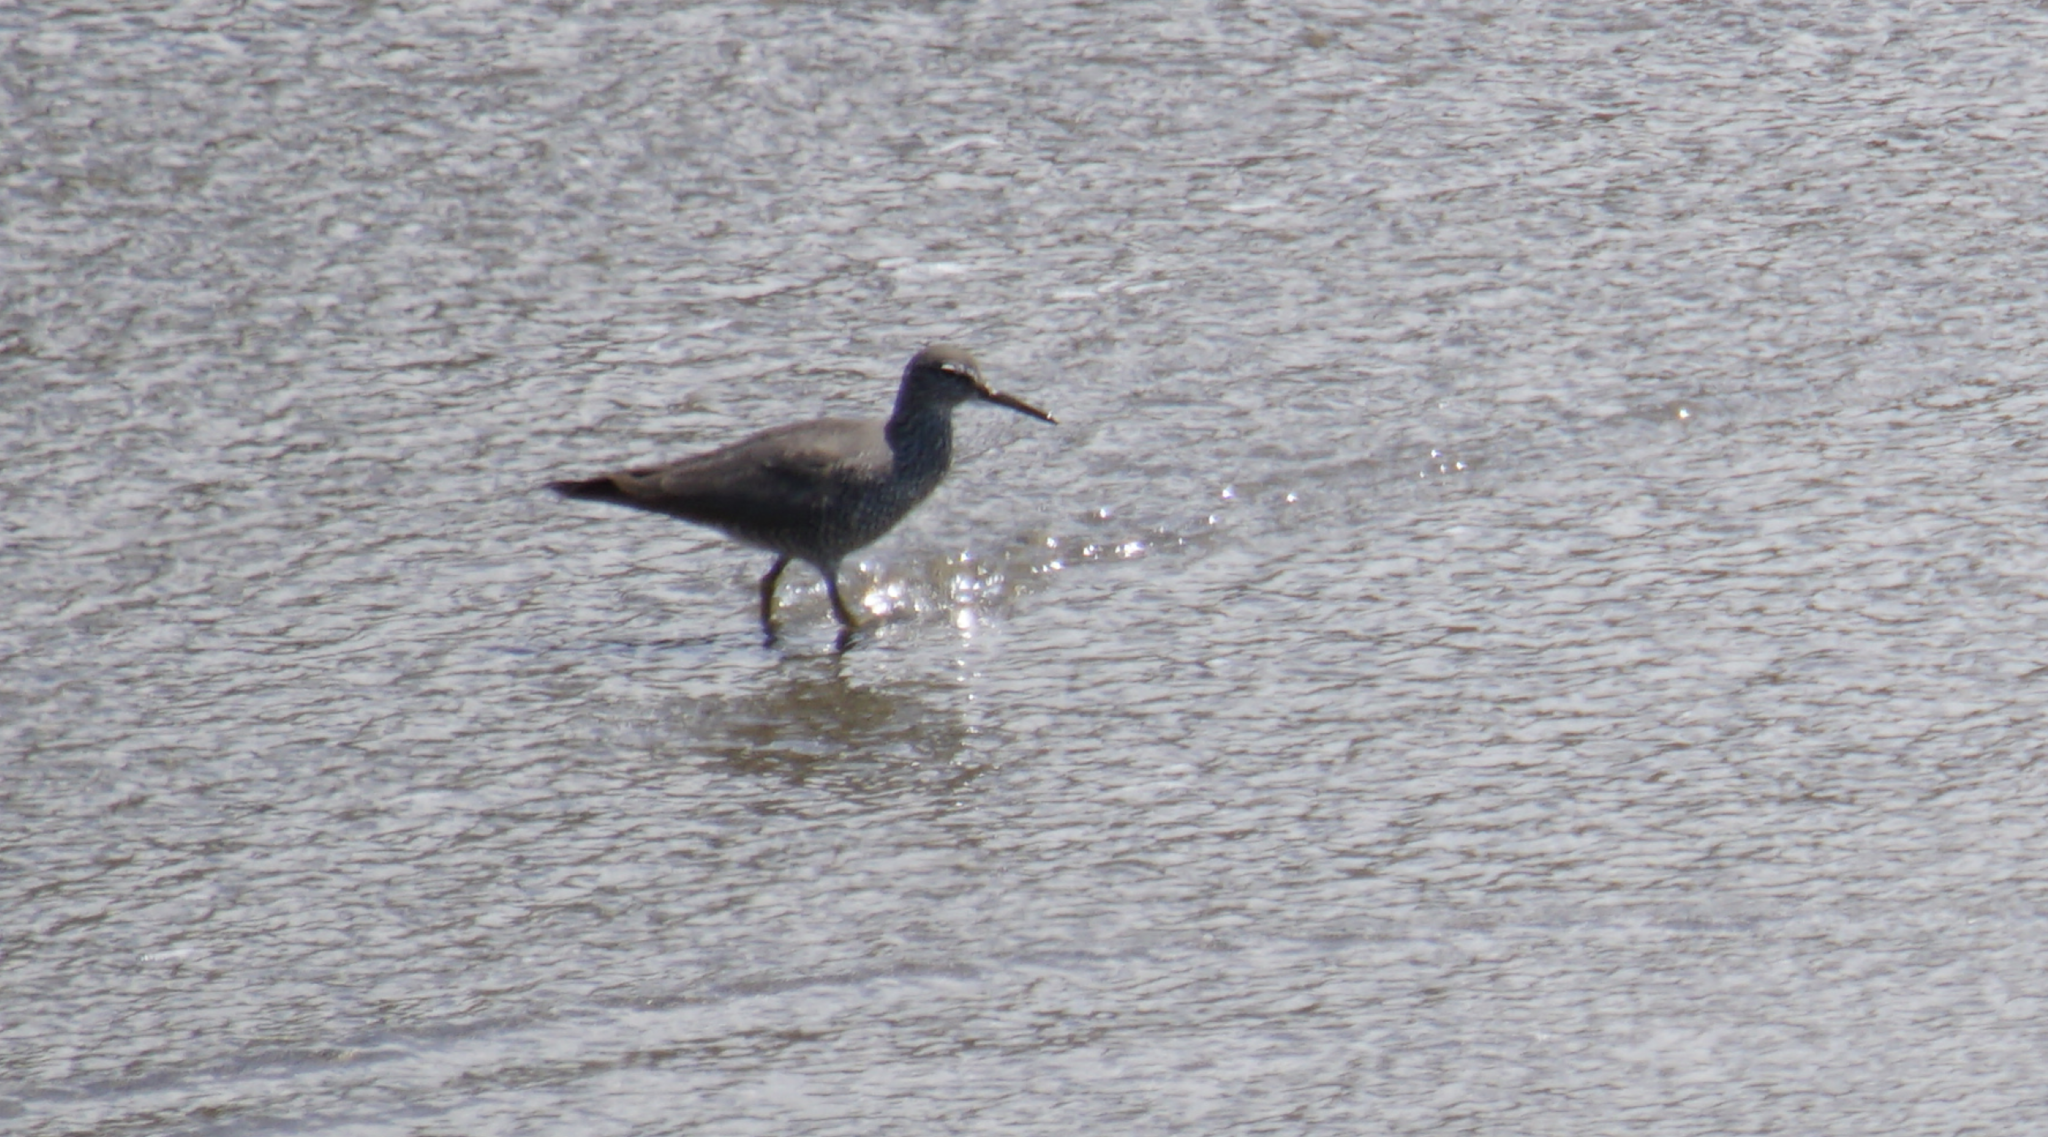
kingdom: Animalia
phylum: Chordata
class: Aves
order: Charadriiformes
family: Scolopacidae
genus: Tringa
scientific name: Tringa incana
